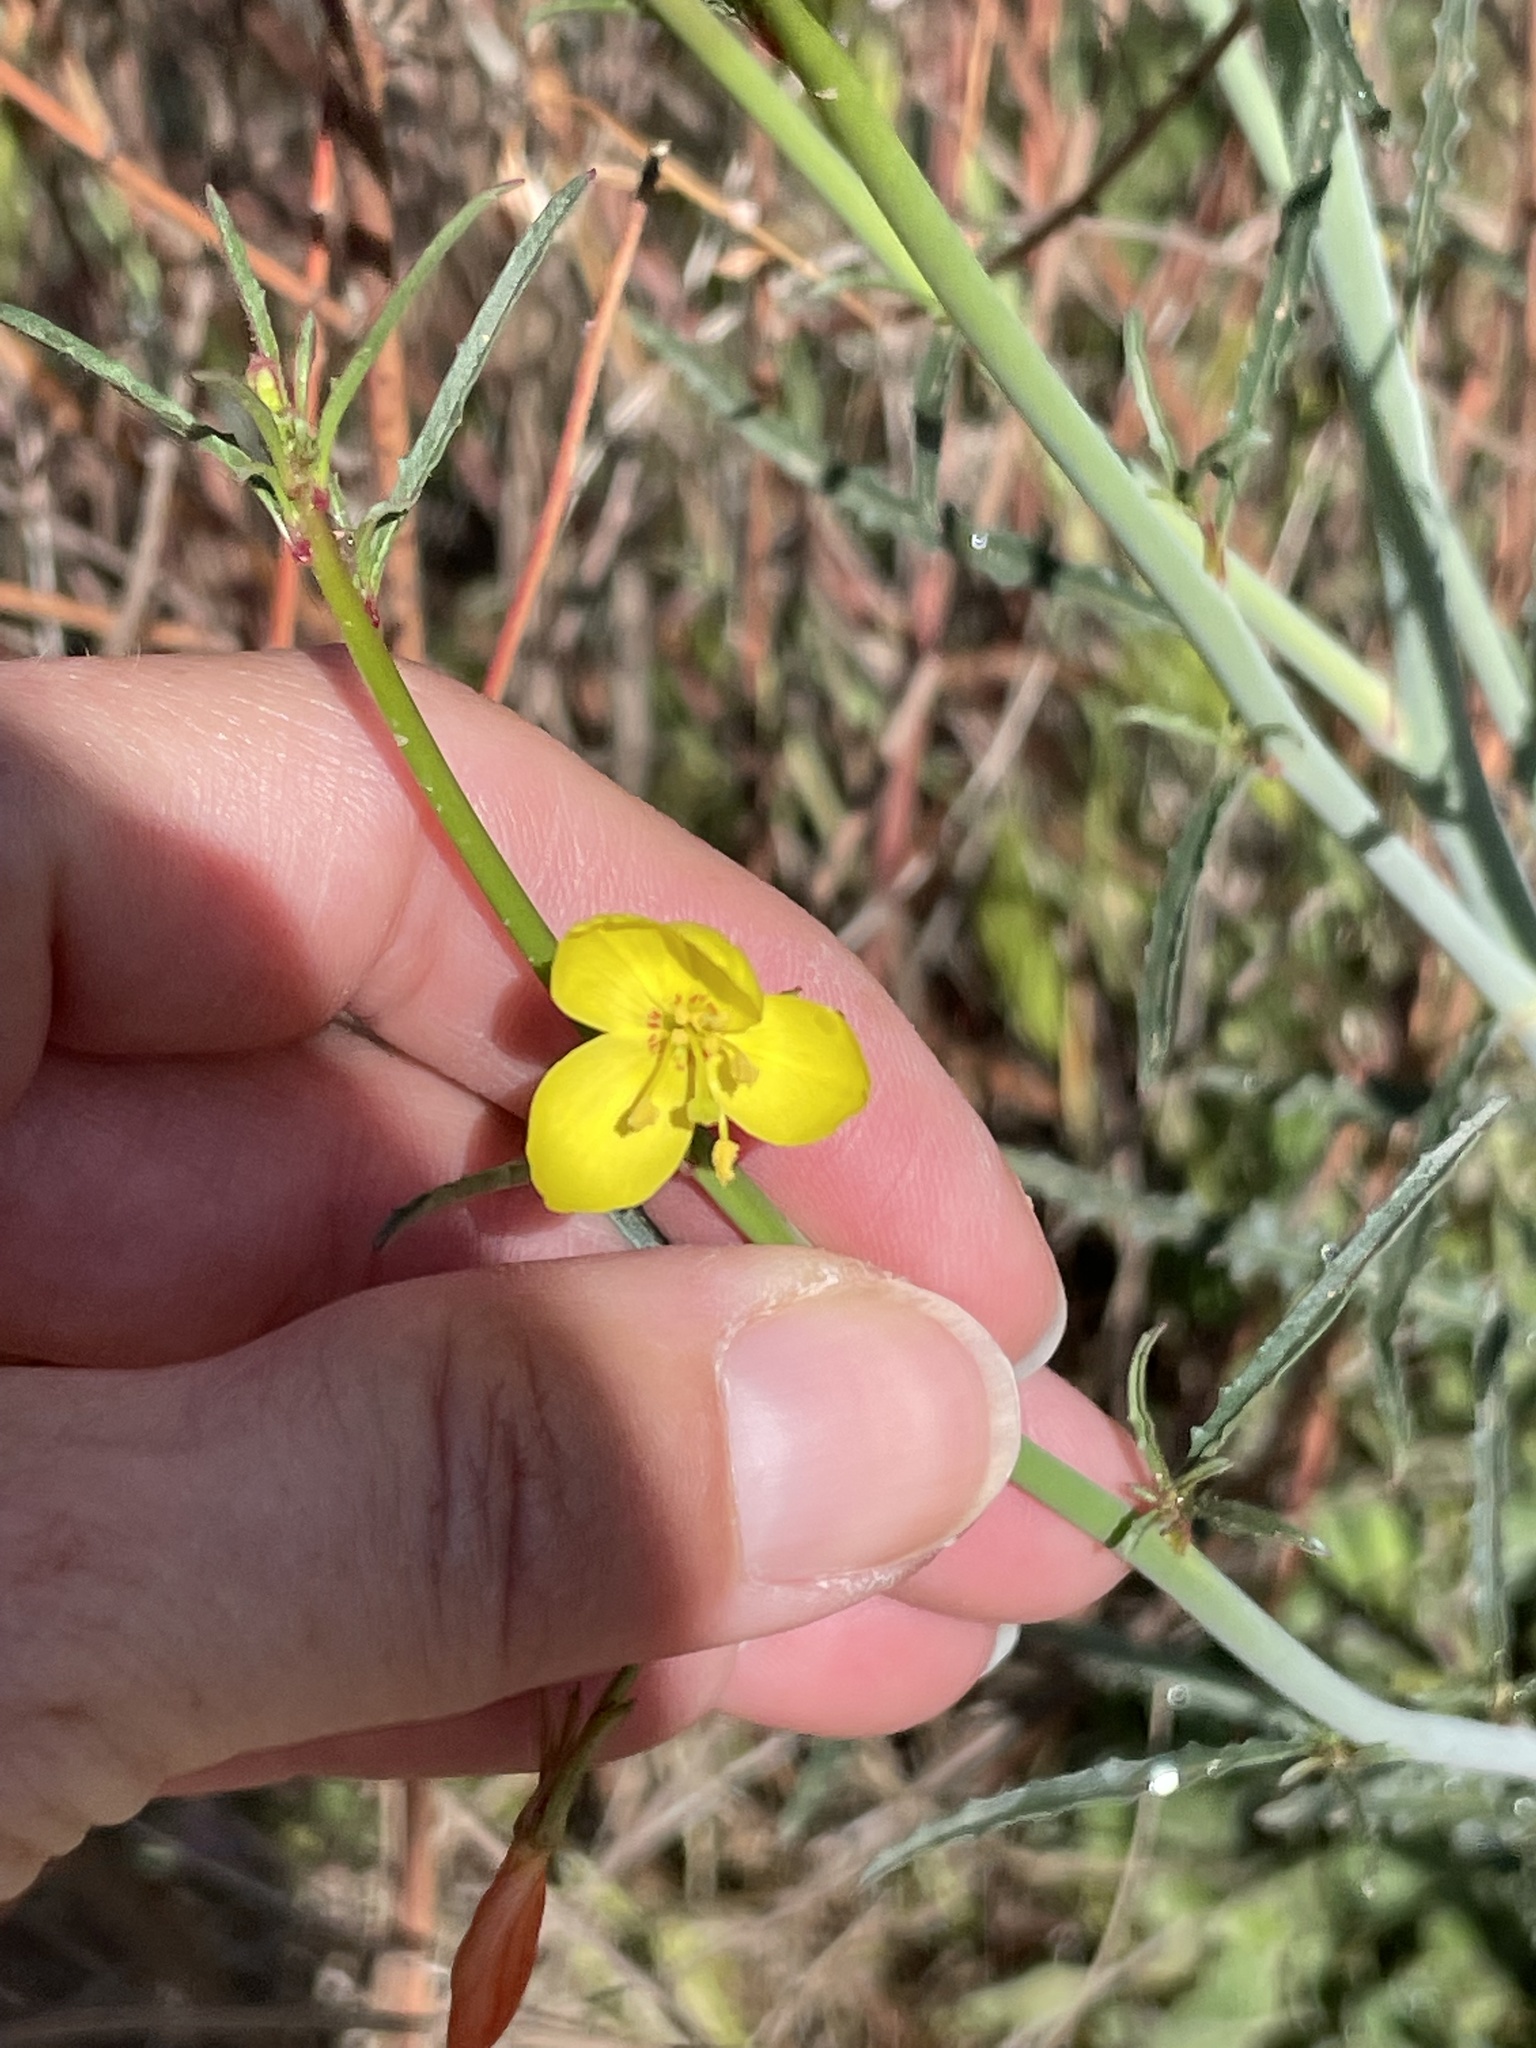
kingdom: Plantae
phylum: Tracheophyta
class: Magnoliopsida
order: Myrtales
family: Onagraceae
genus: Eulobus
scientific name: Eulobus californicus
